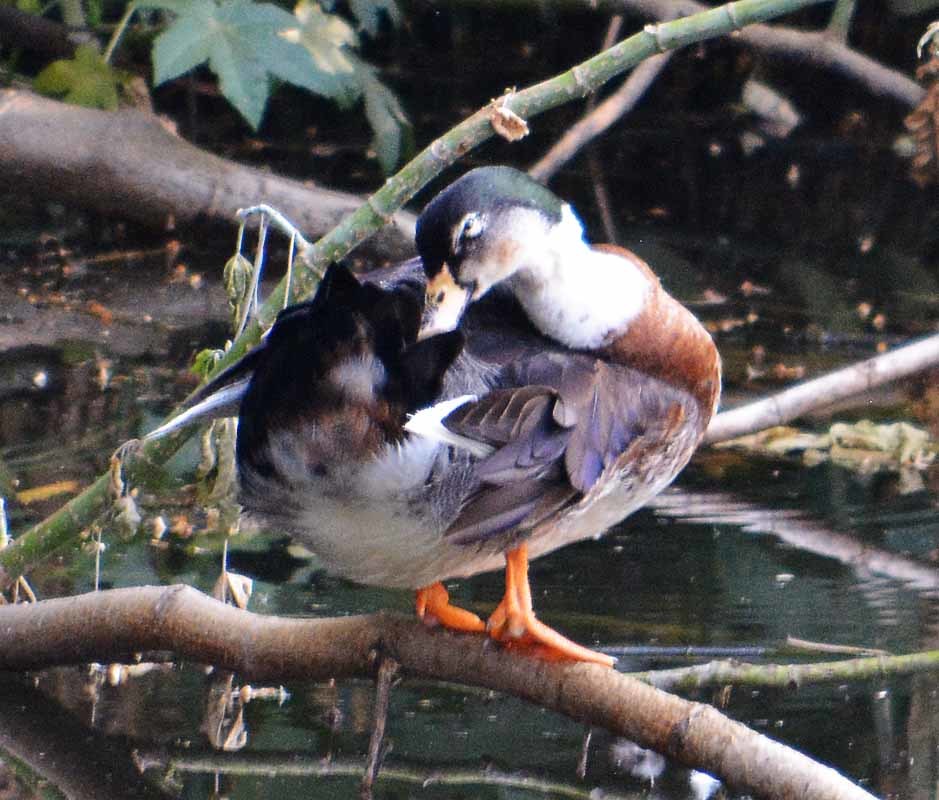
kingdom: Animalia
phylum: Chordata
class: Aves
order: Anseriformes
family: Anatidae
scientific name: Anatidae
